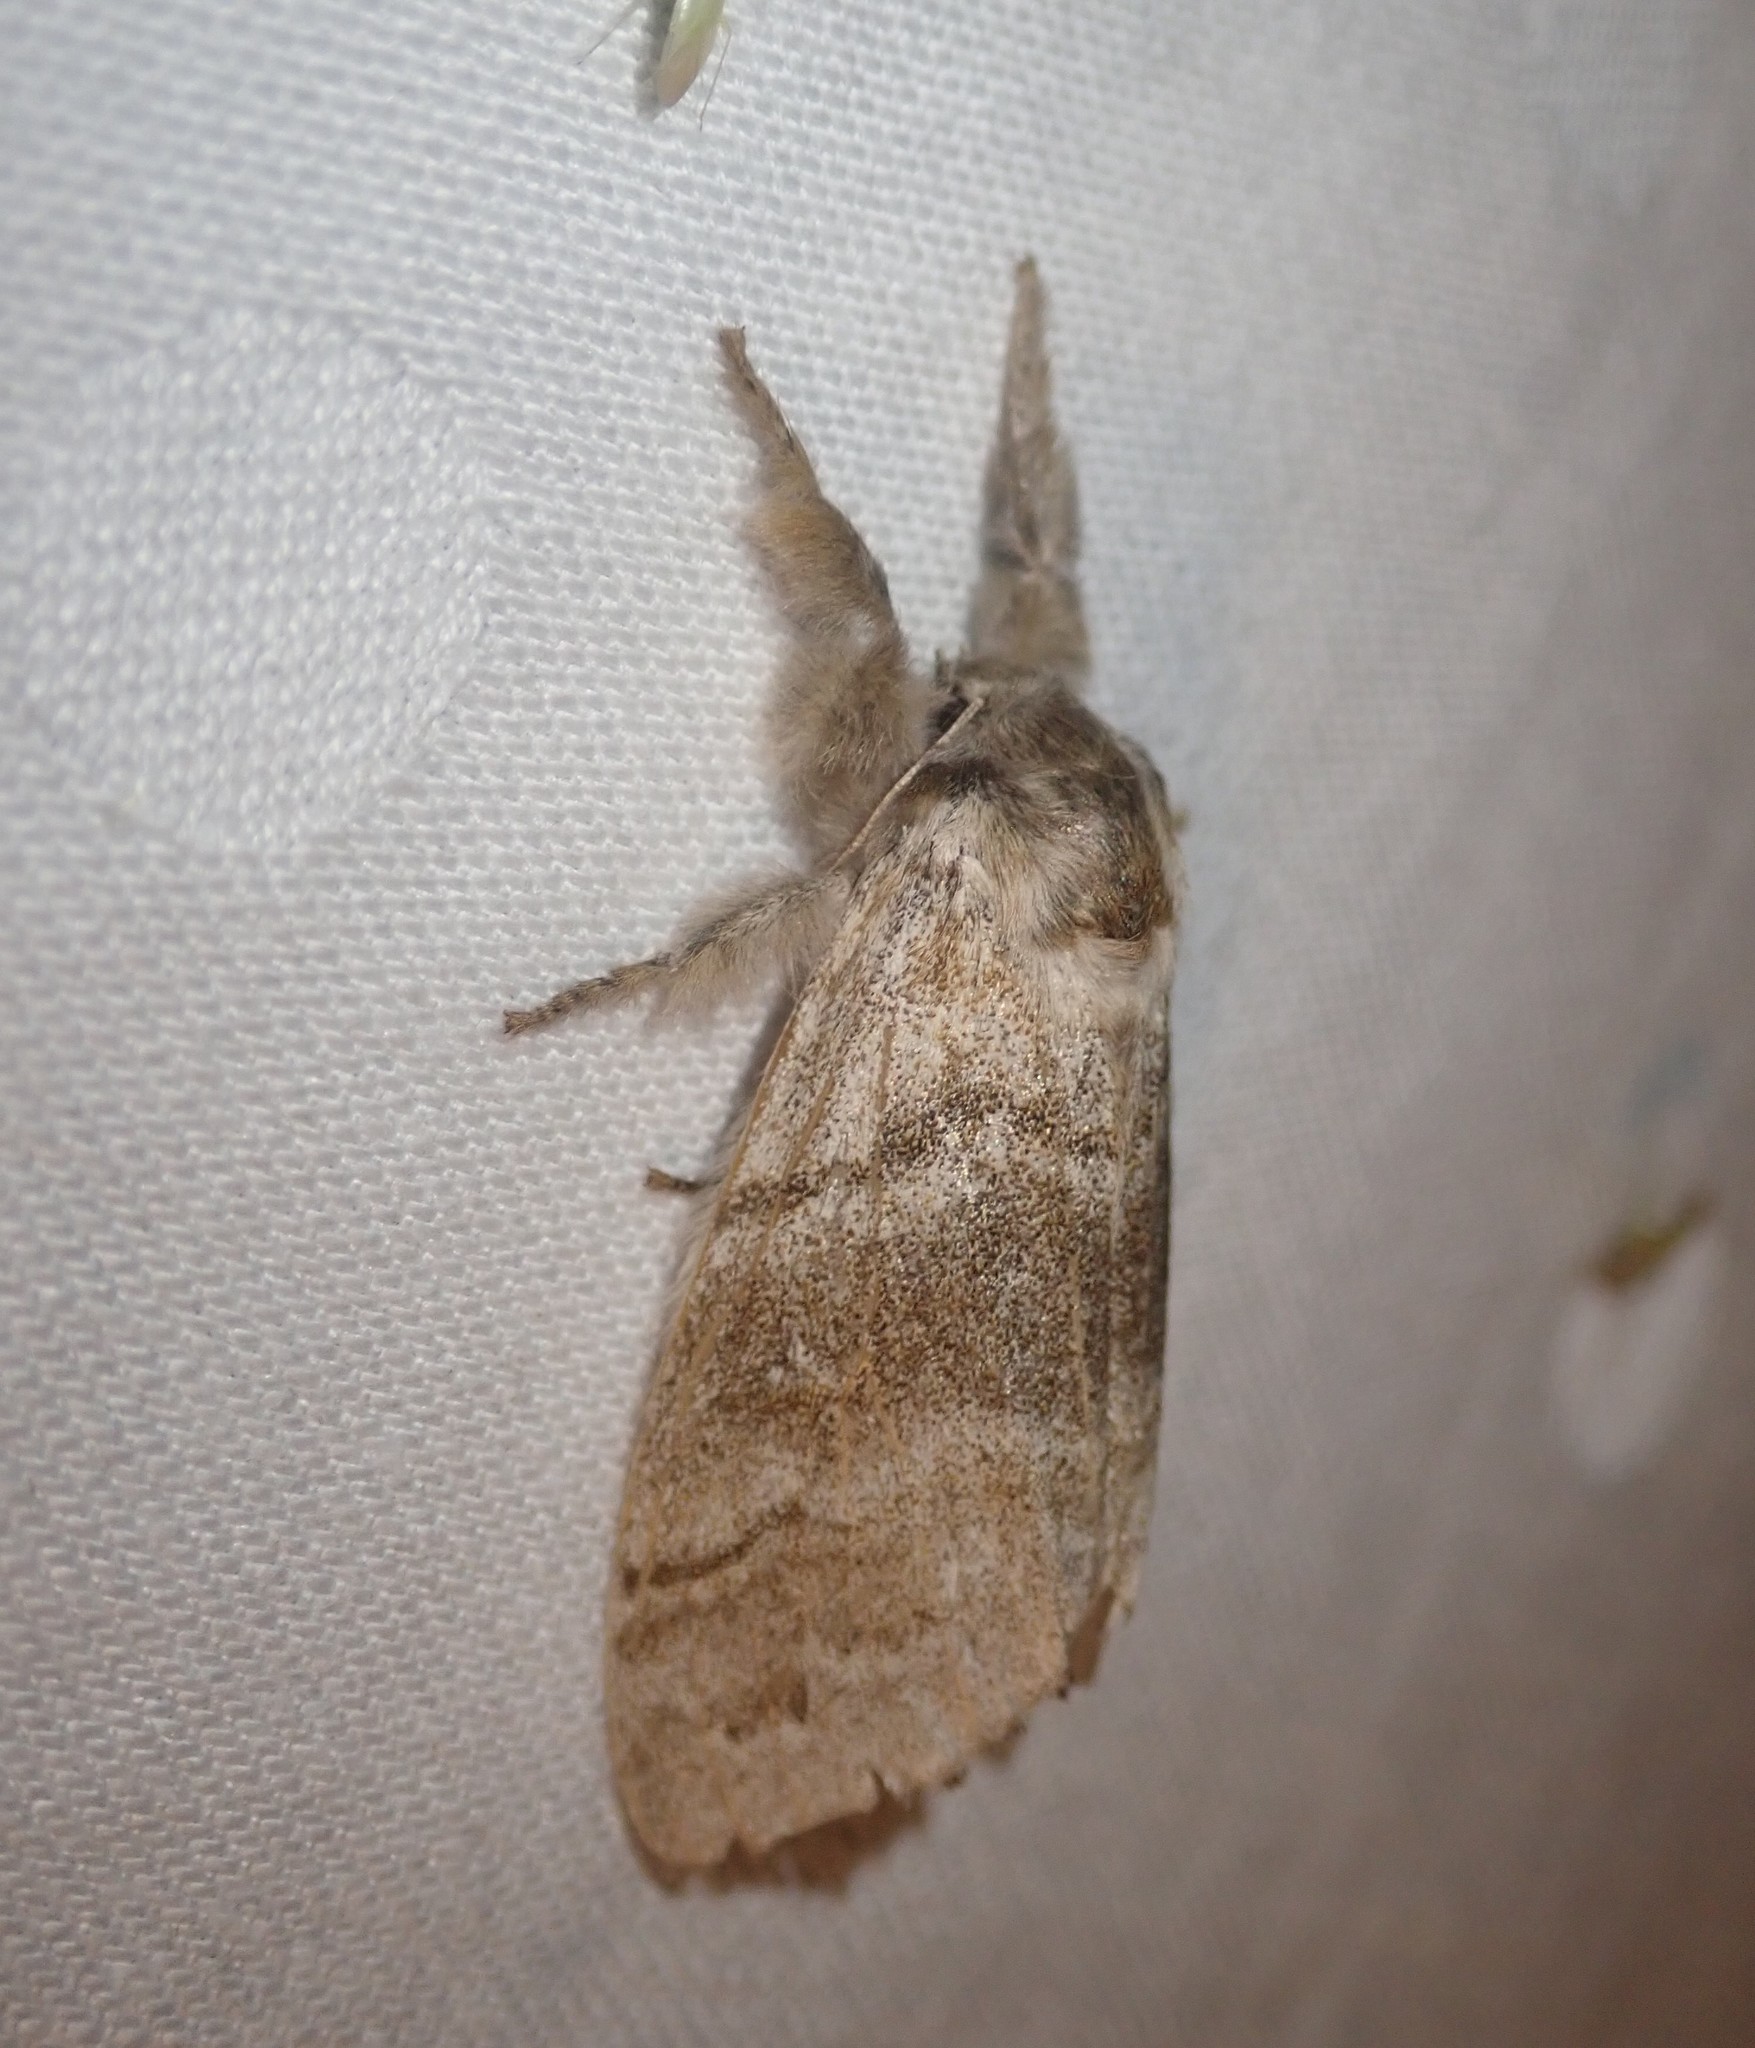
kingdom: Animalia
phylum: Arthropoda
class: Insecta
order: Lepidoptera
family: Erebidae
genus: Calliteara
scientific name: Calliteara pudibunda
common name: Pale tussock
